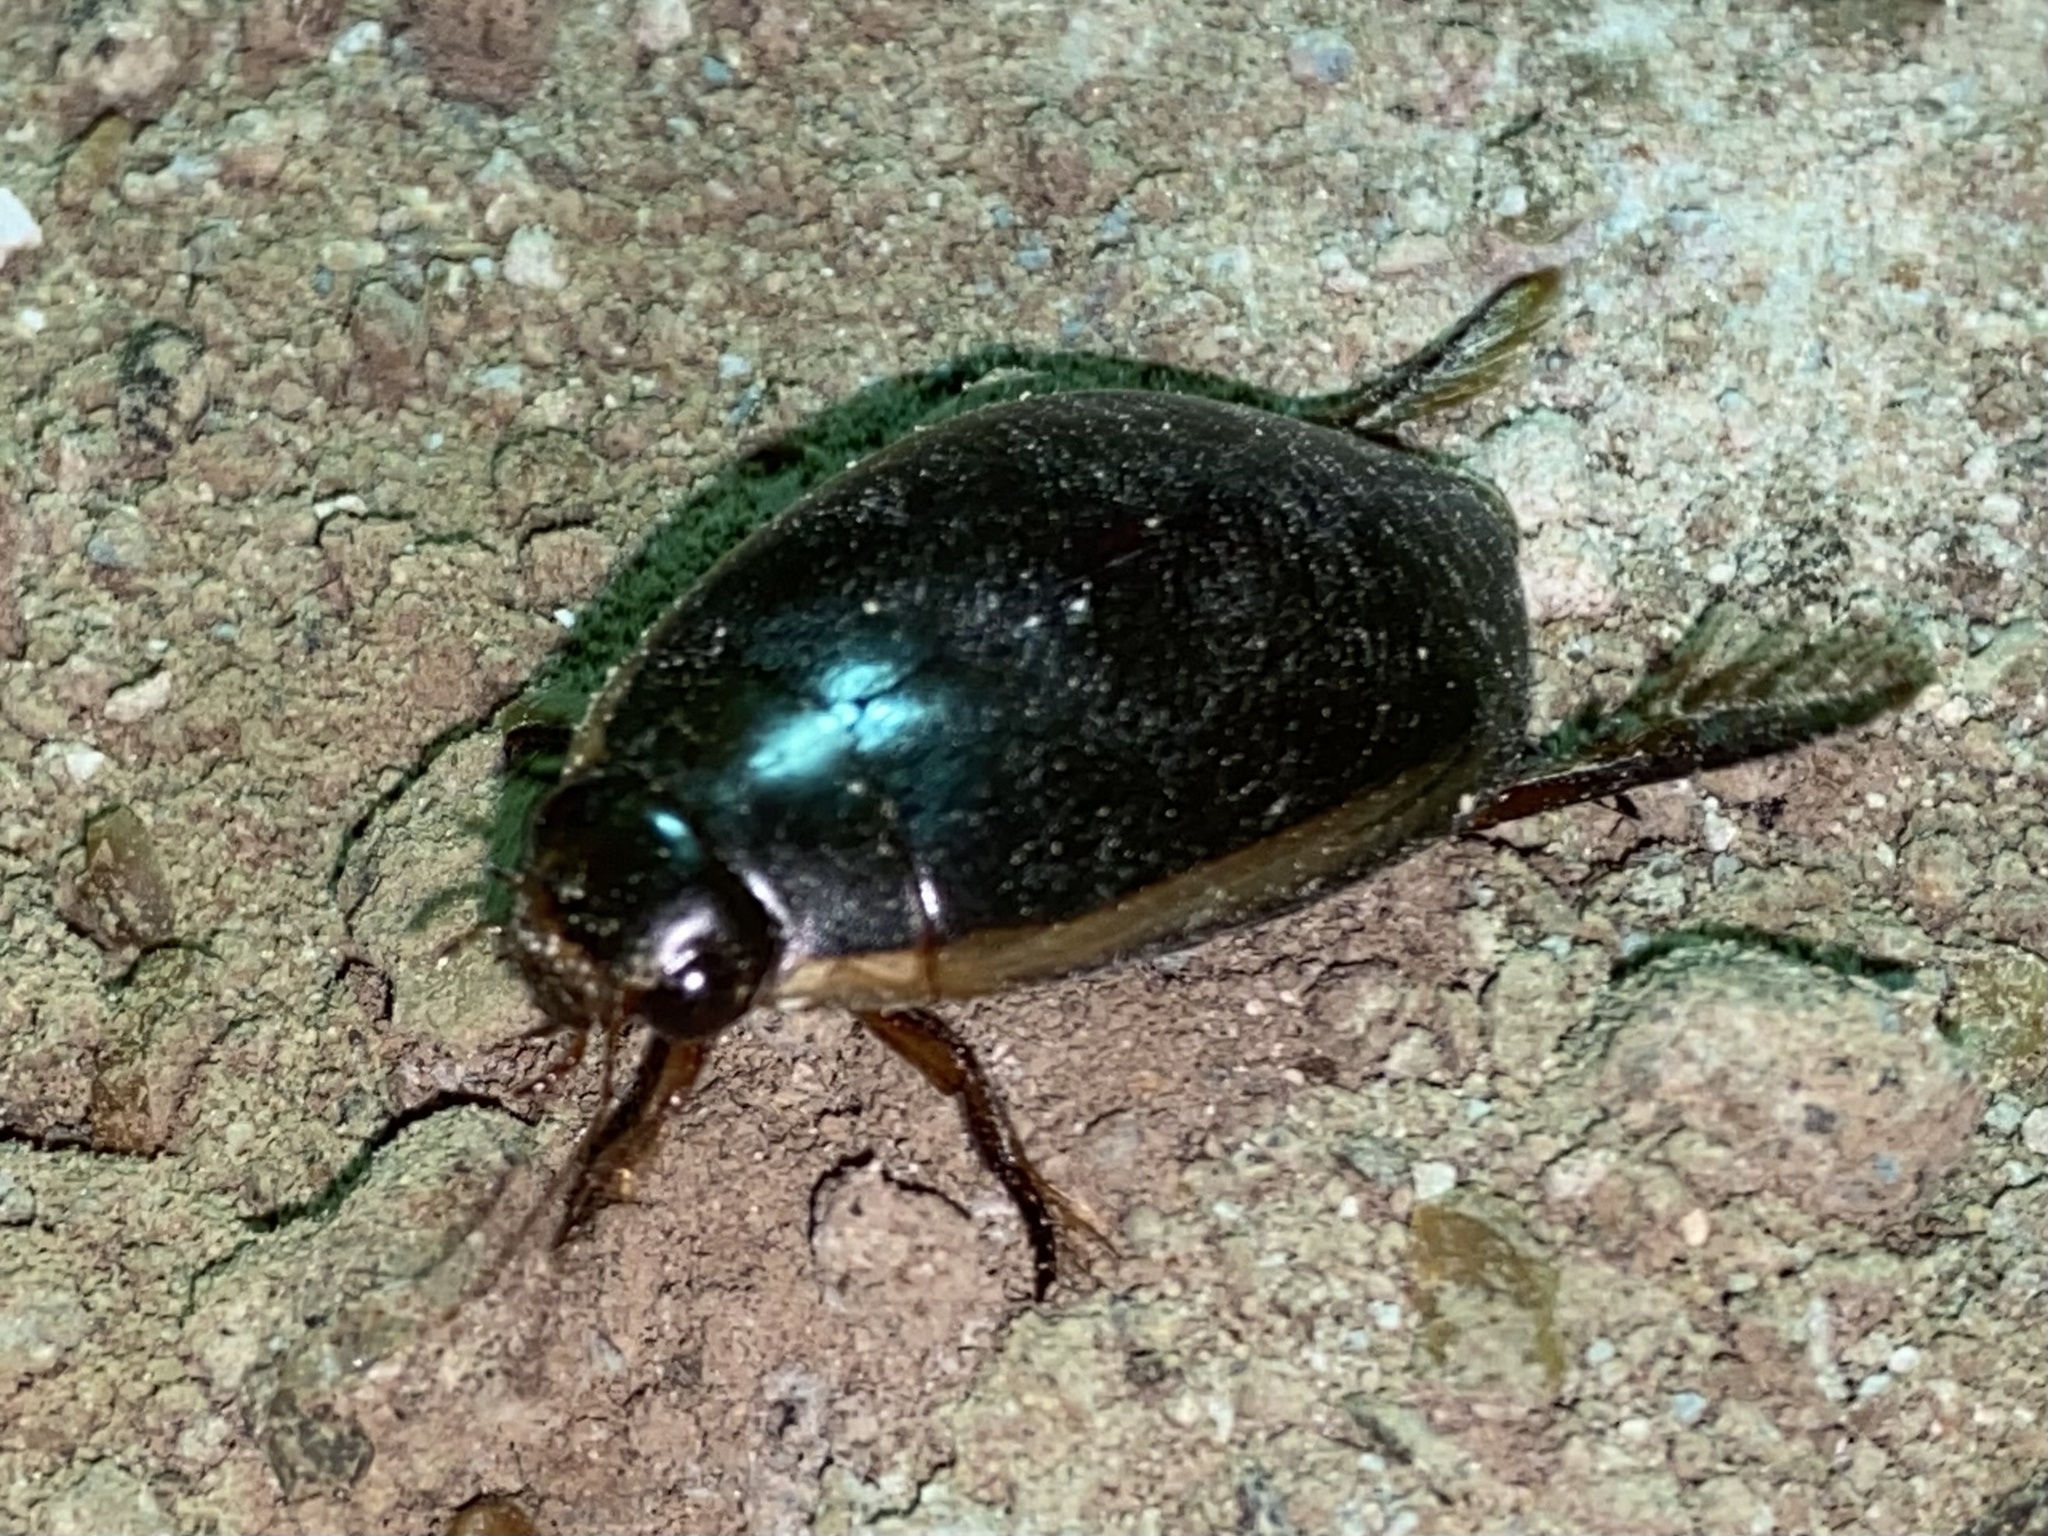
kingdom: Animalia
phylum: Arthropoda
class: Insecta
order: Coleoptera
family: Dytiscidae
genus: Cybister
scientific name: Cybister fimbriolatus
